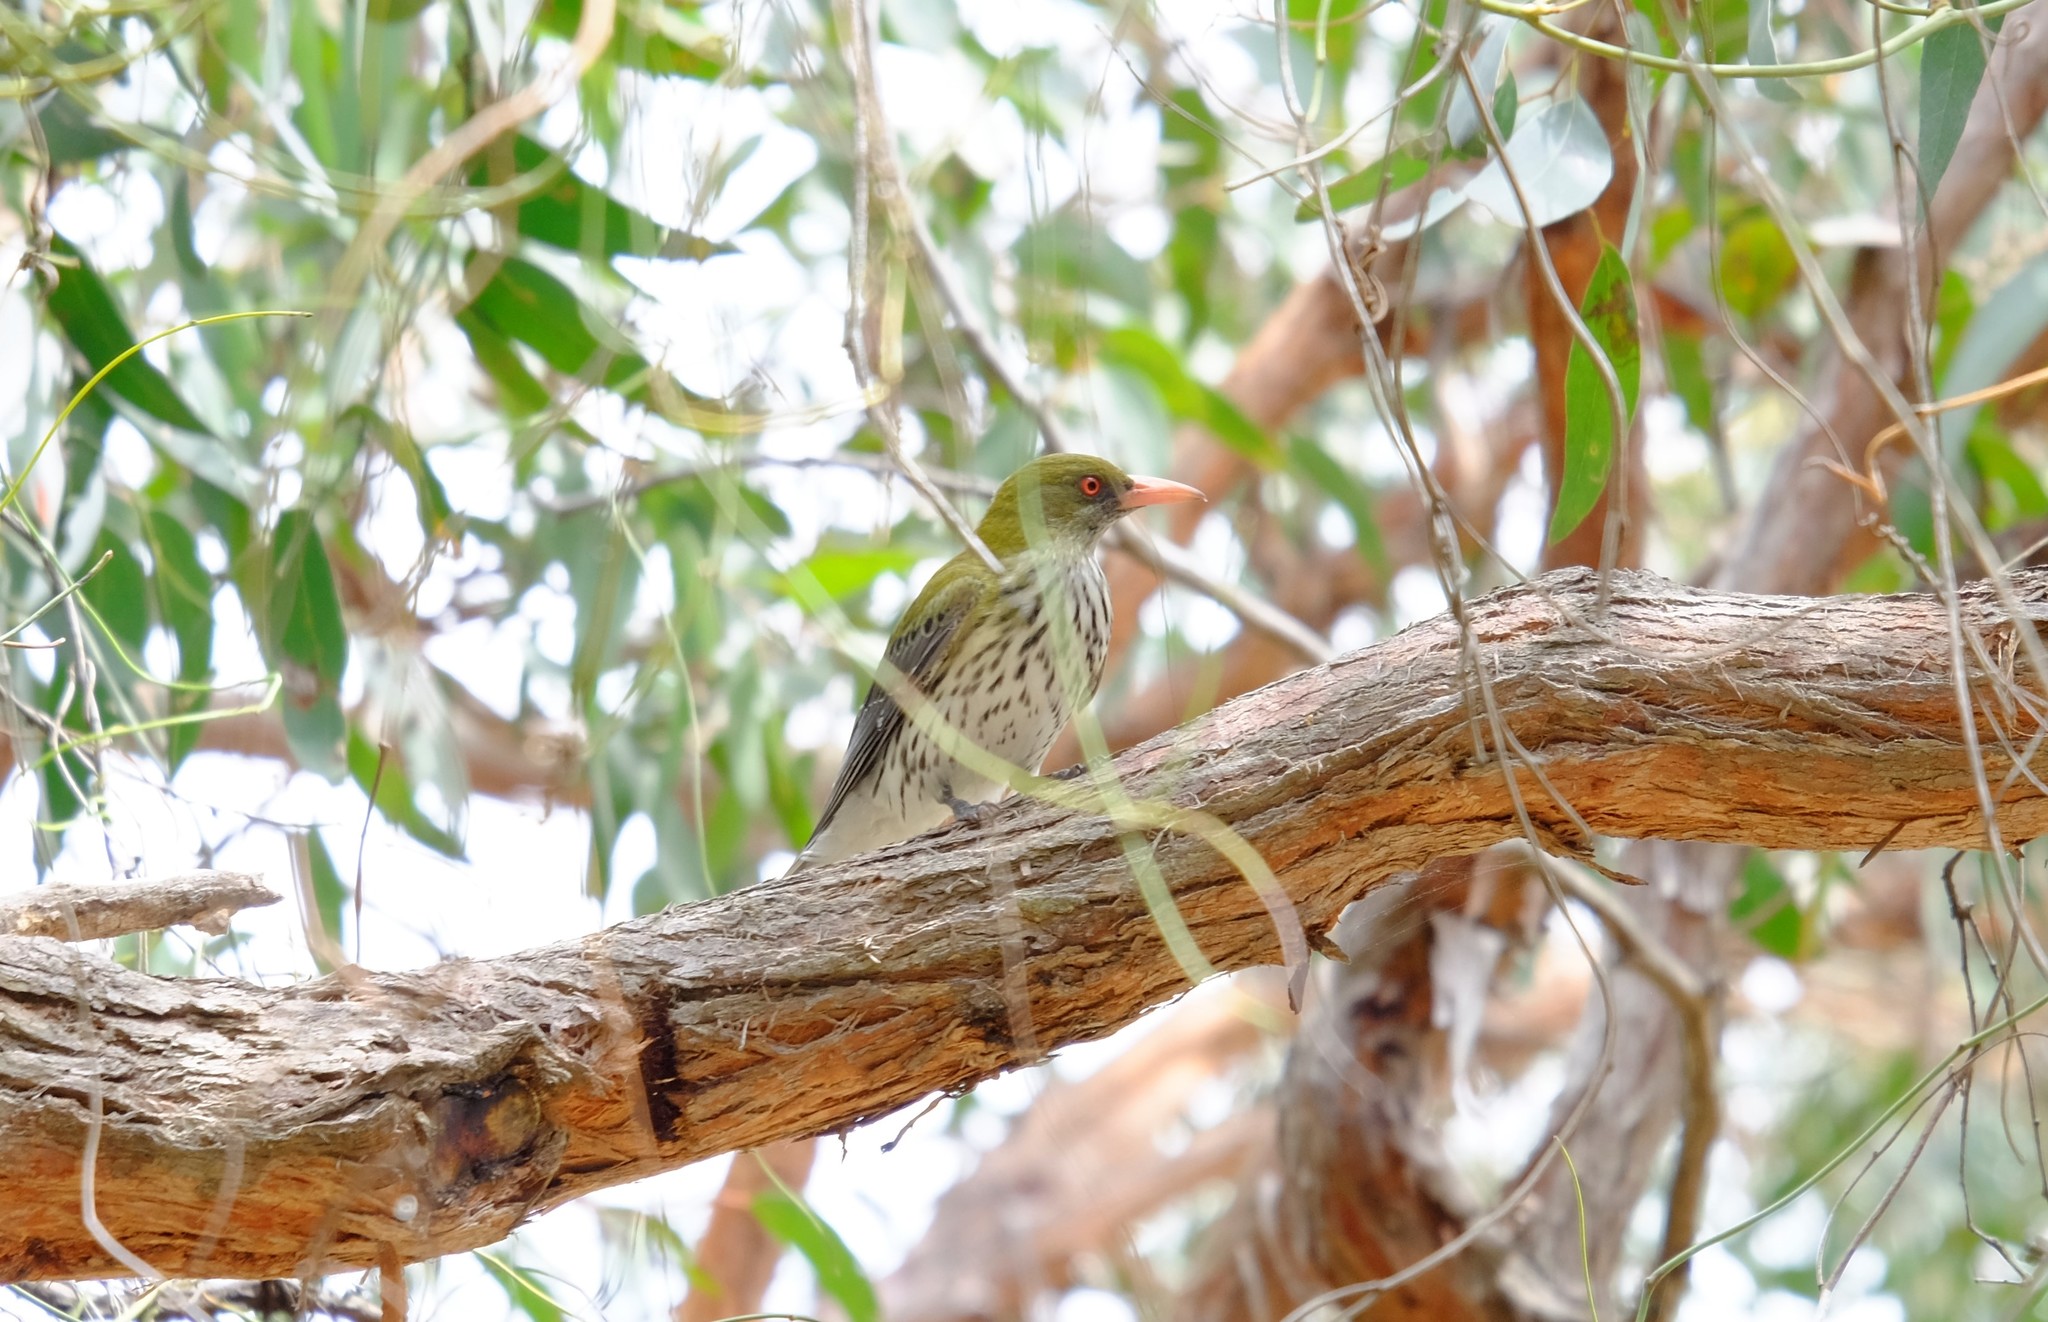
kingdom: Animalia
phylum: Chordata
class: Aves
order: Passeriformes
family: Oriolidae
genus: Oriolus
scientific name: Oriolus sagittatus
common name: Olive-backed oriole
